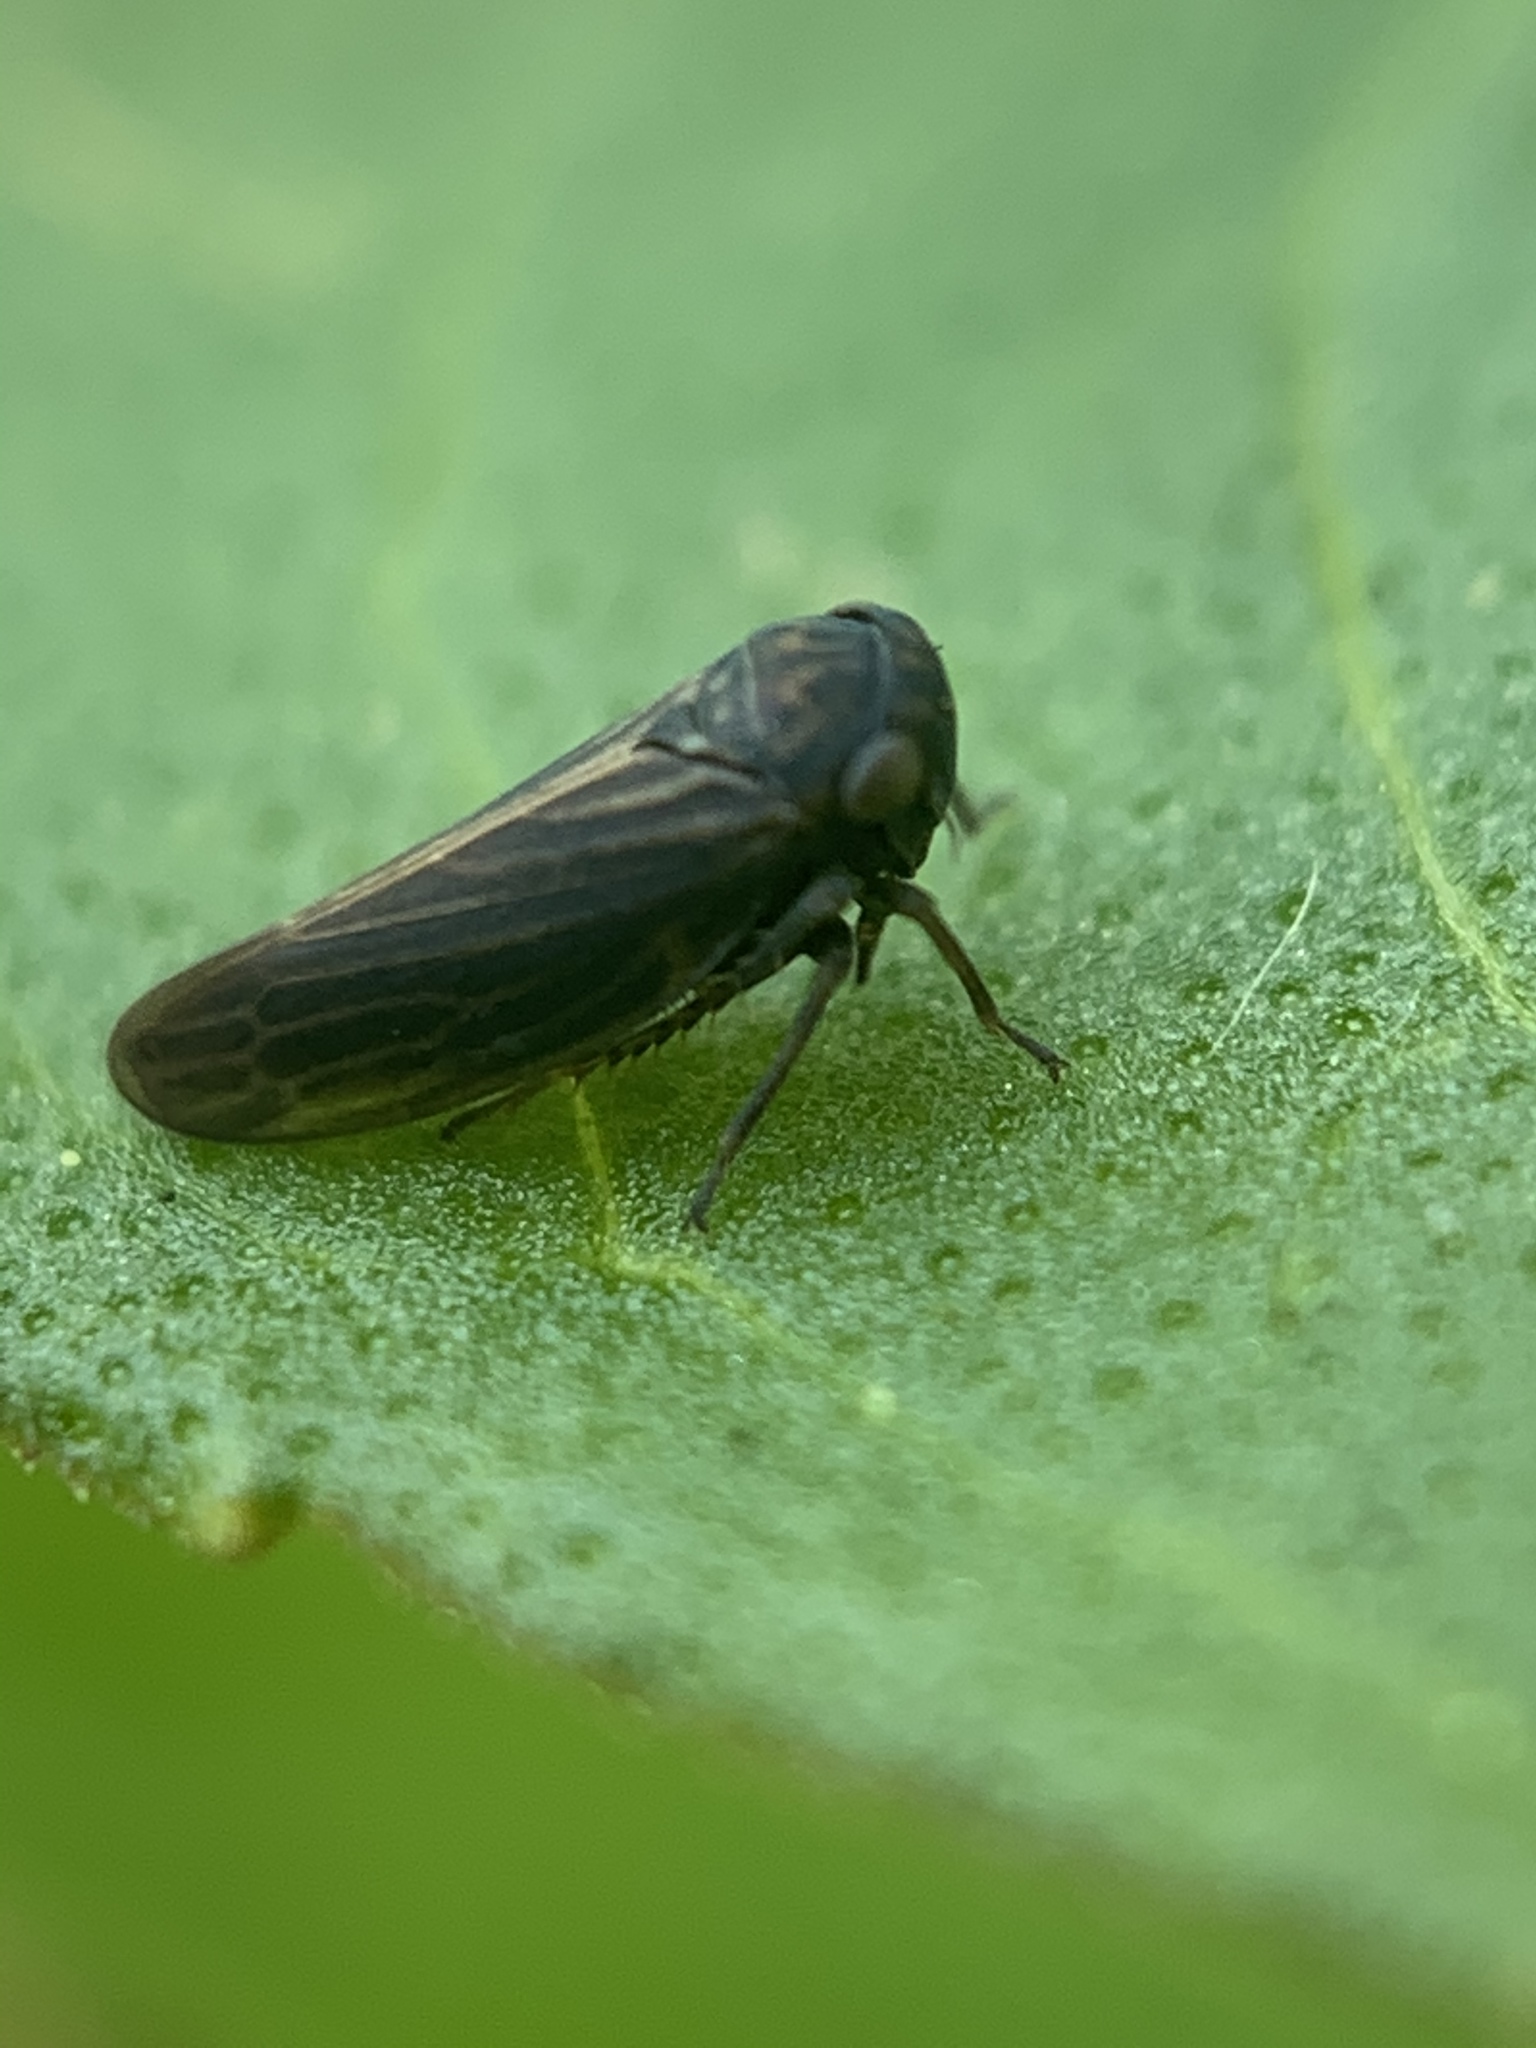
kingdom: Animalia
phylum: Arthropoda
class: Insecta
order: Hemiptera
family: Cicadellidae
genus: Agallia
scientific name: Agallia constricta
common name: The constricted leafhopper
